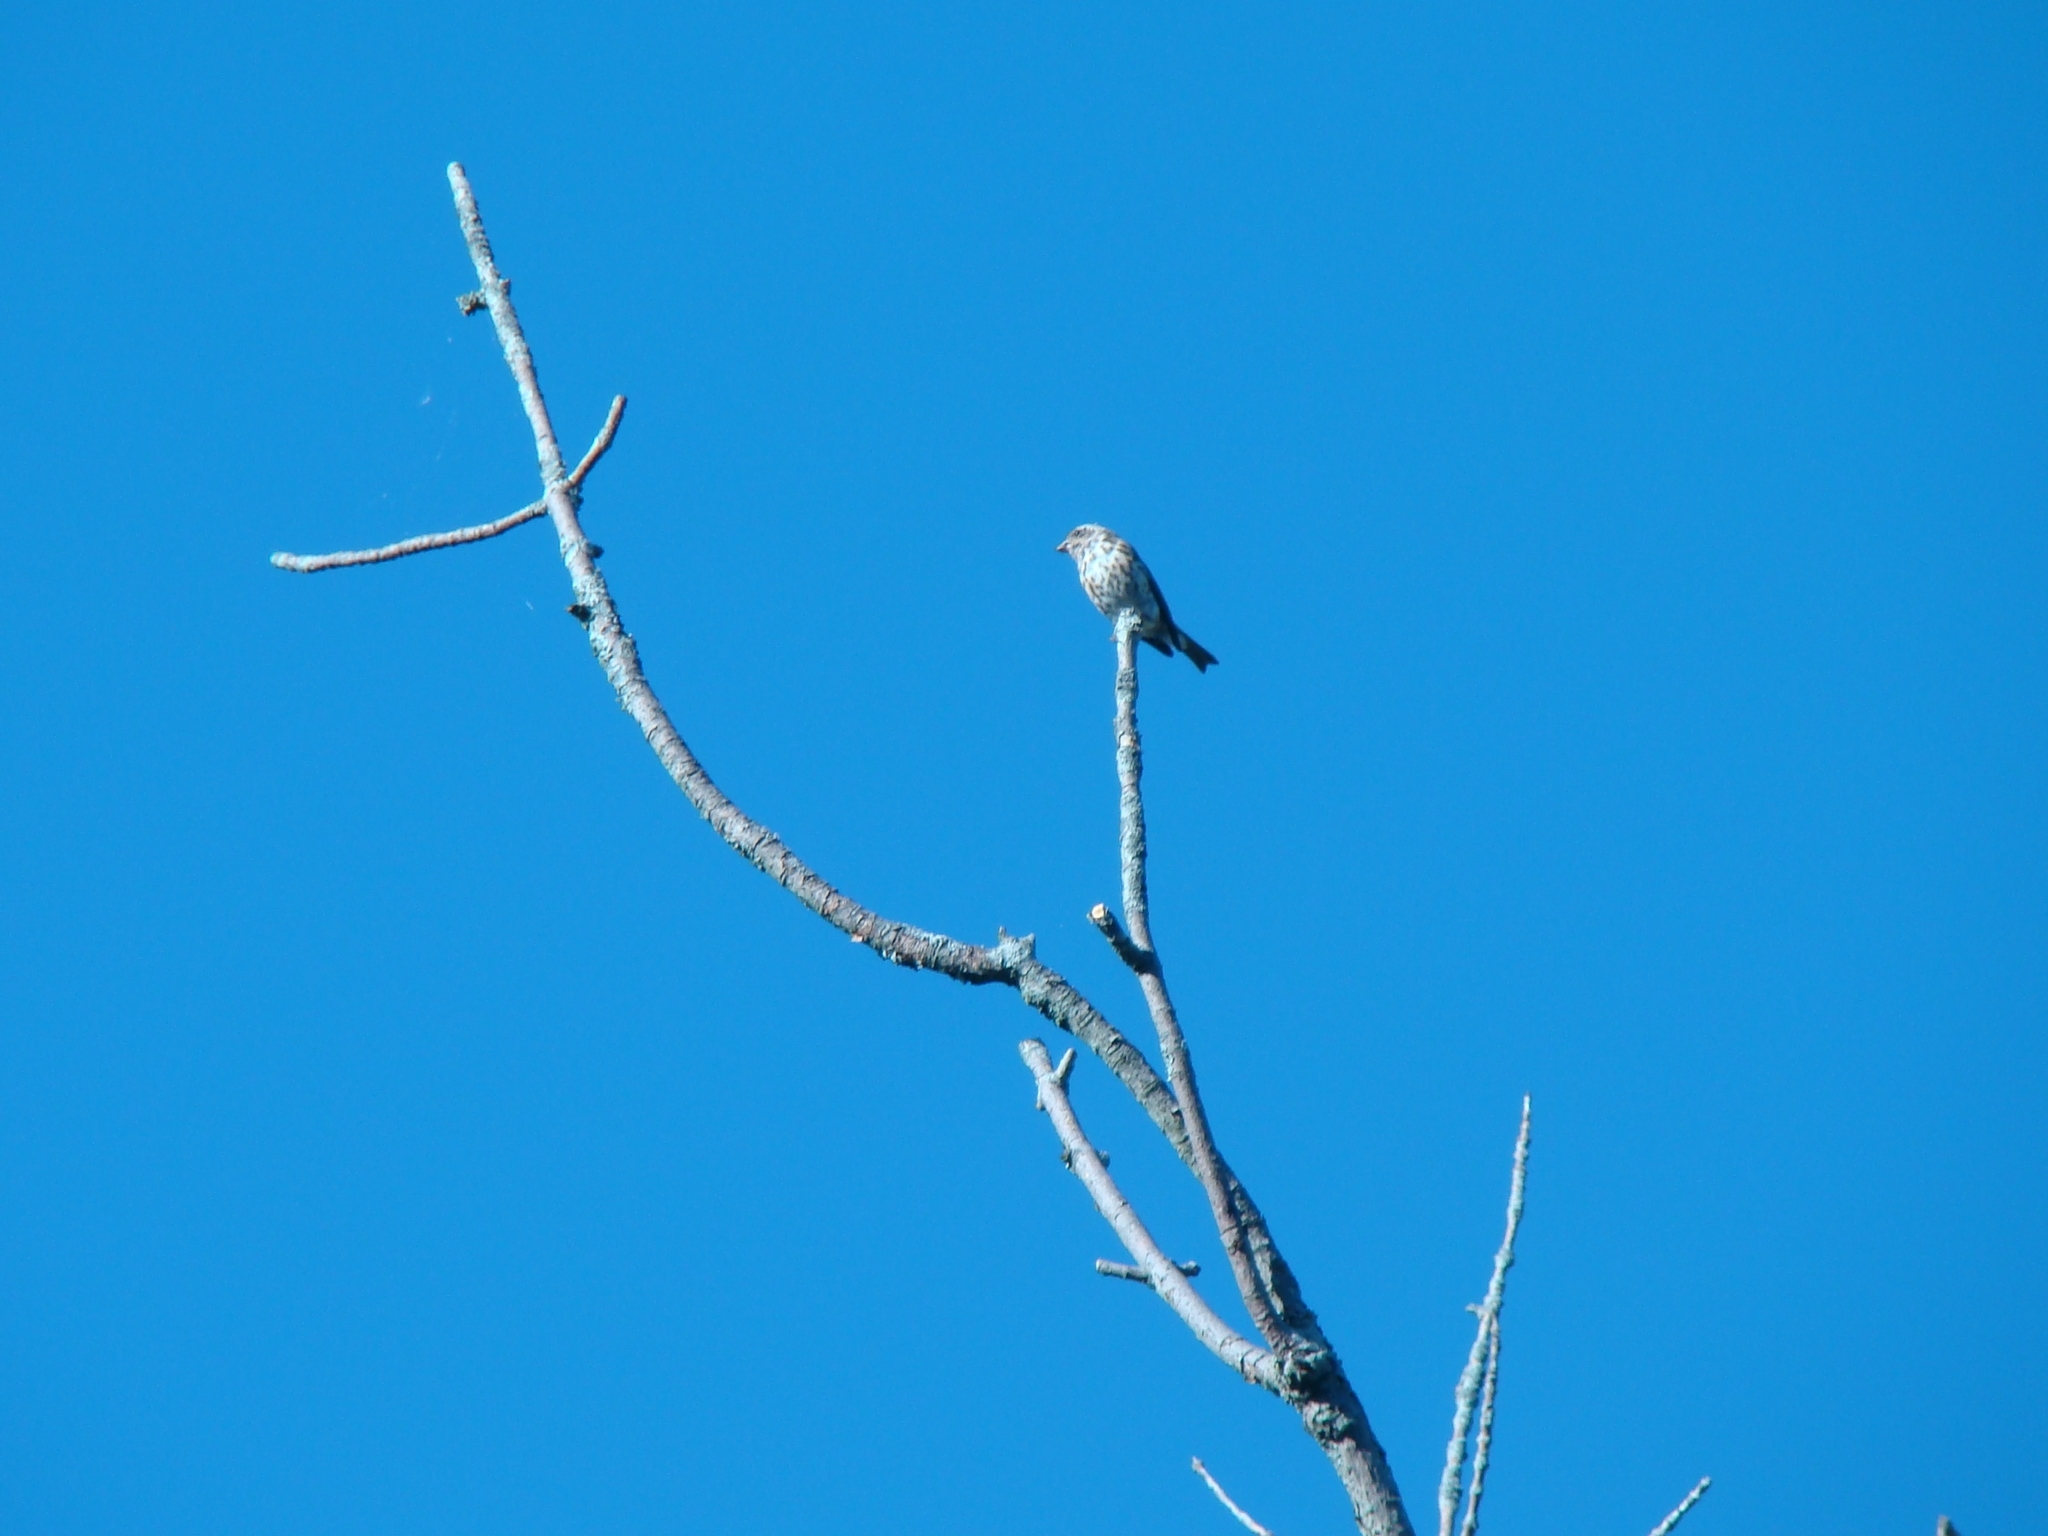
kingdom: Animalia
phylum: Chordata
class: Aves
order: Passeriformes
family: Fringillidae
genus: Haemorhous
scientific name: Haemorhous purpureus
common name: Purple finch
